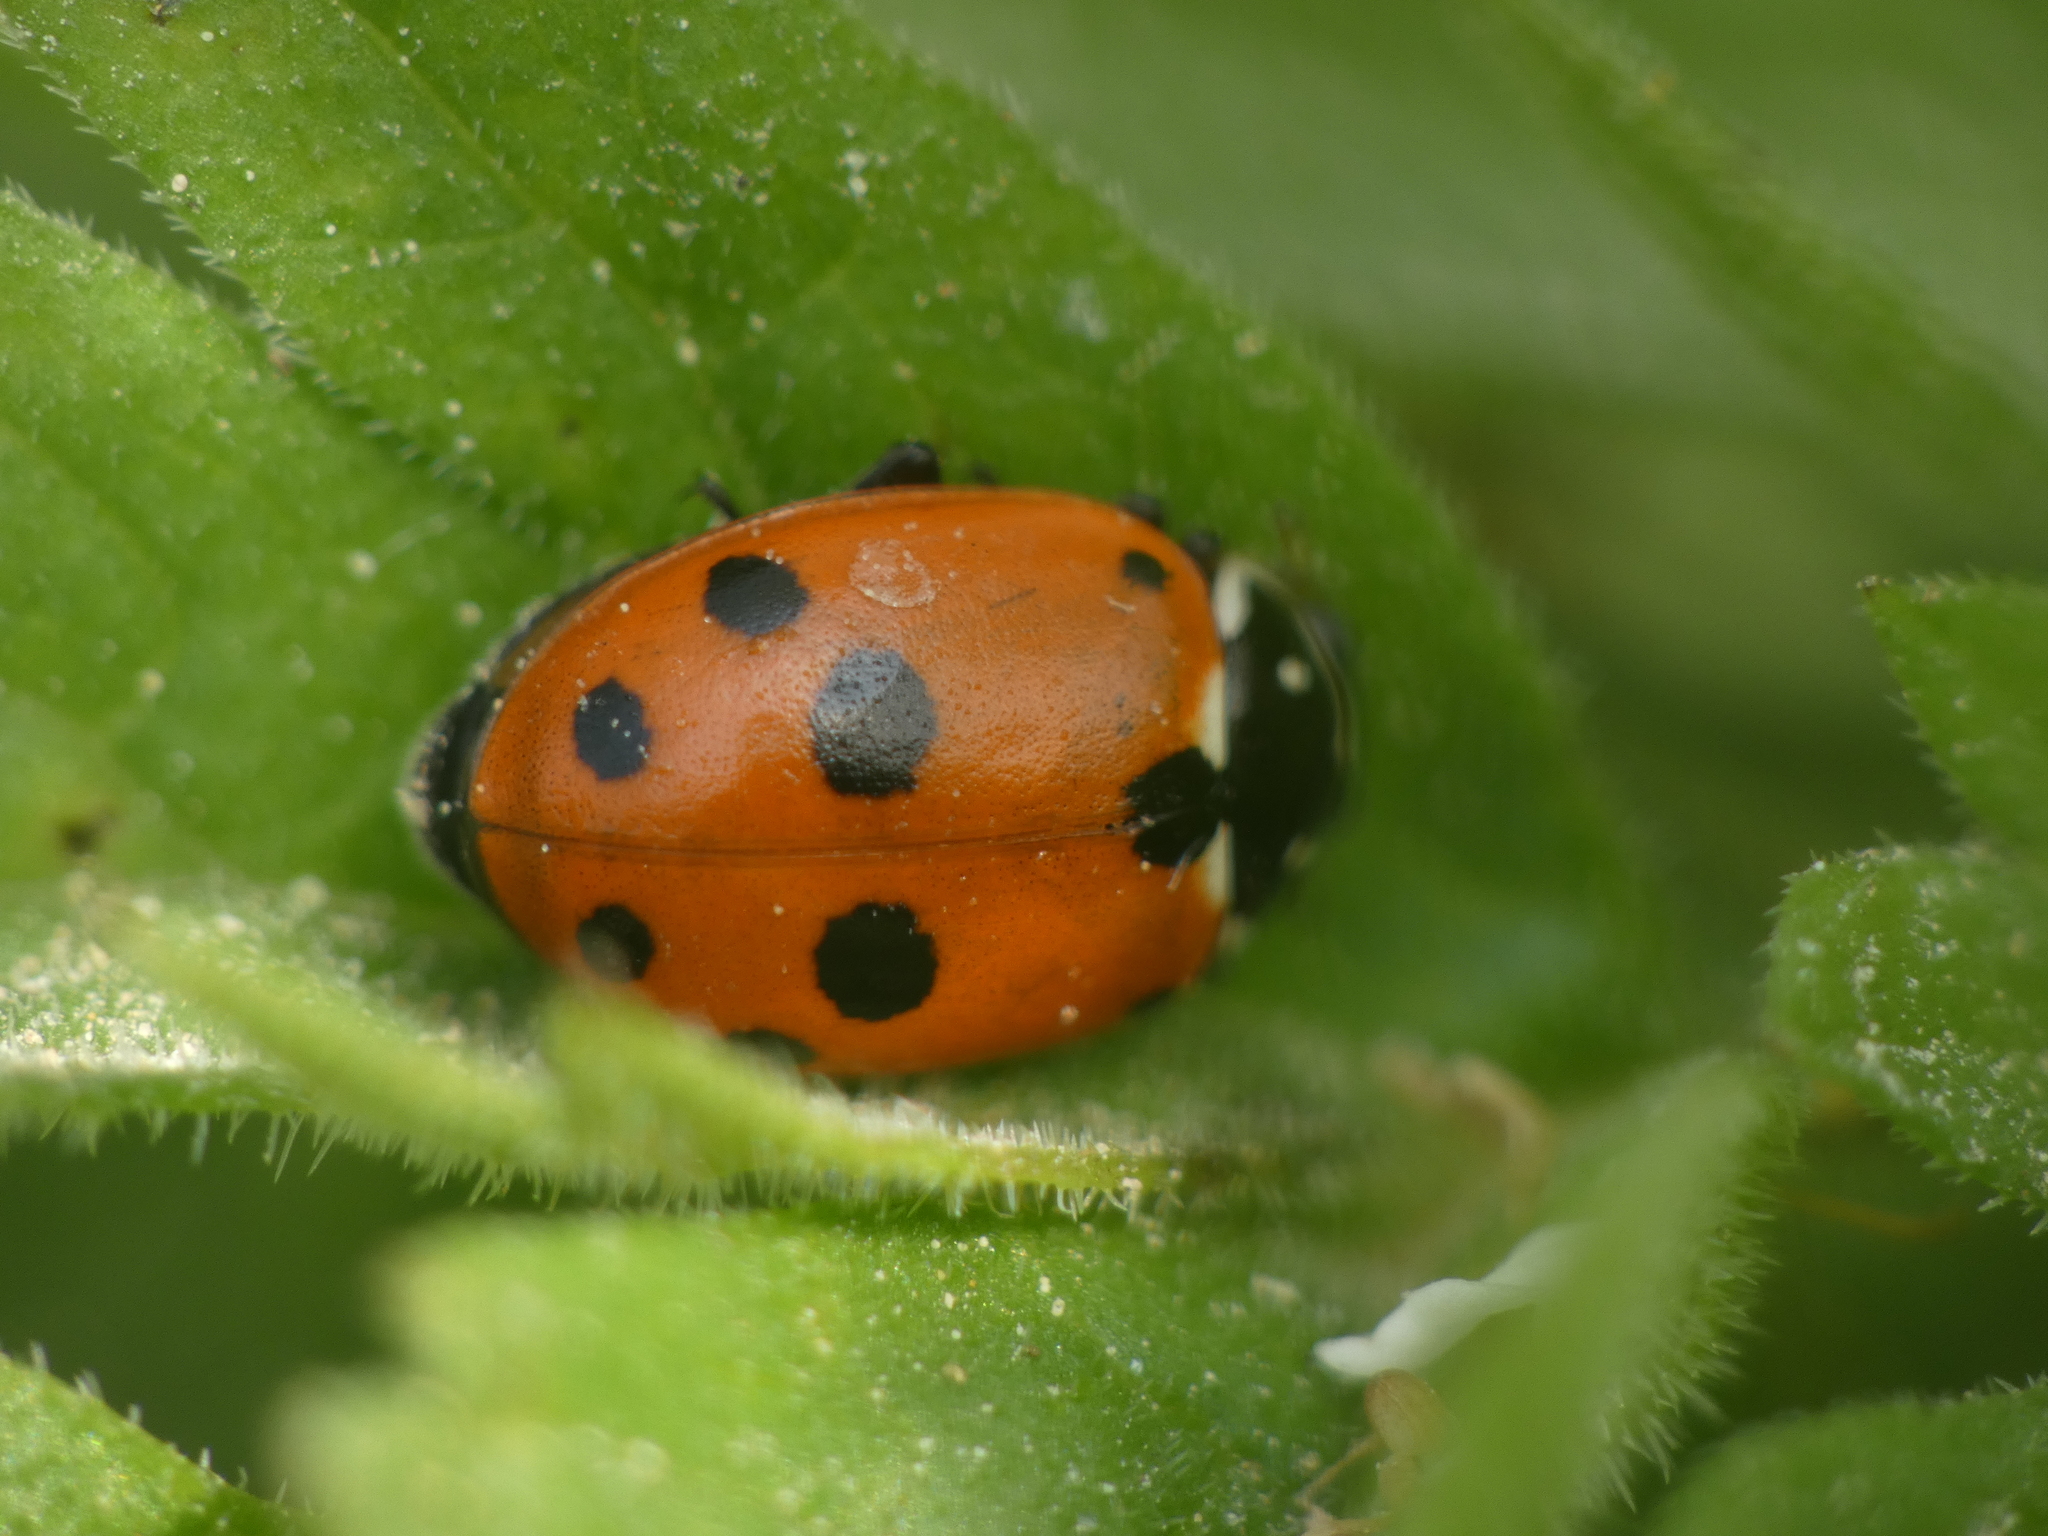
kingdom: Animalia
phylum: Arthropoda
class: Insecta
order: Coleoptera
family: Coccinellidae
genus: Hippodamia
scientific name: Hippodamia variegata
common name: Ladybird beetle
